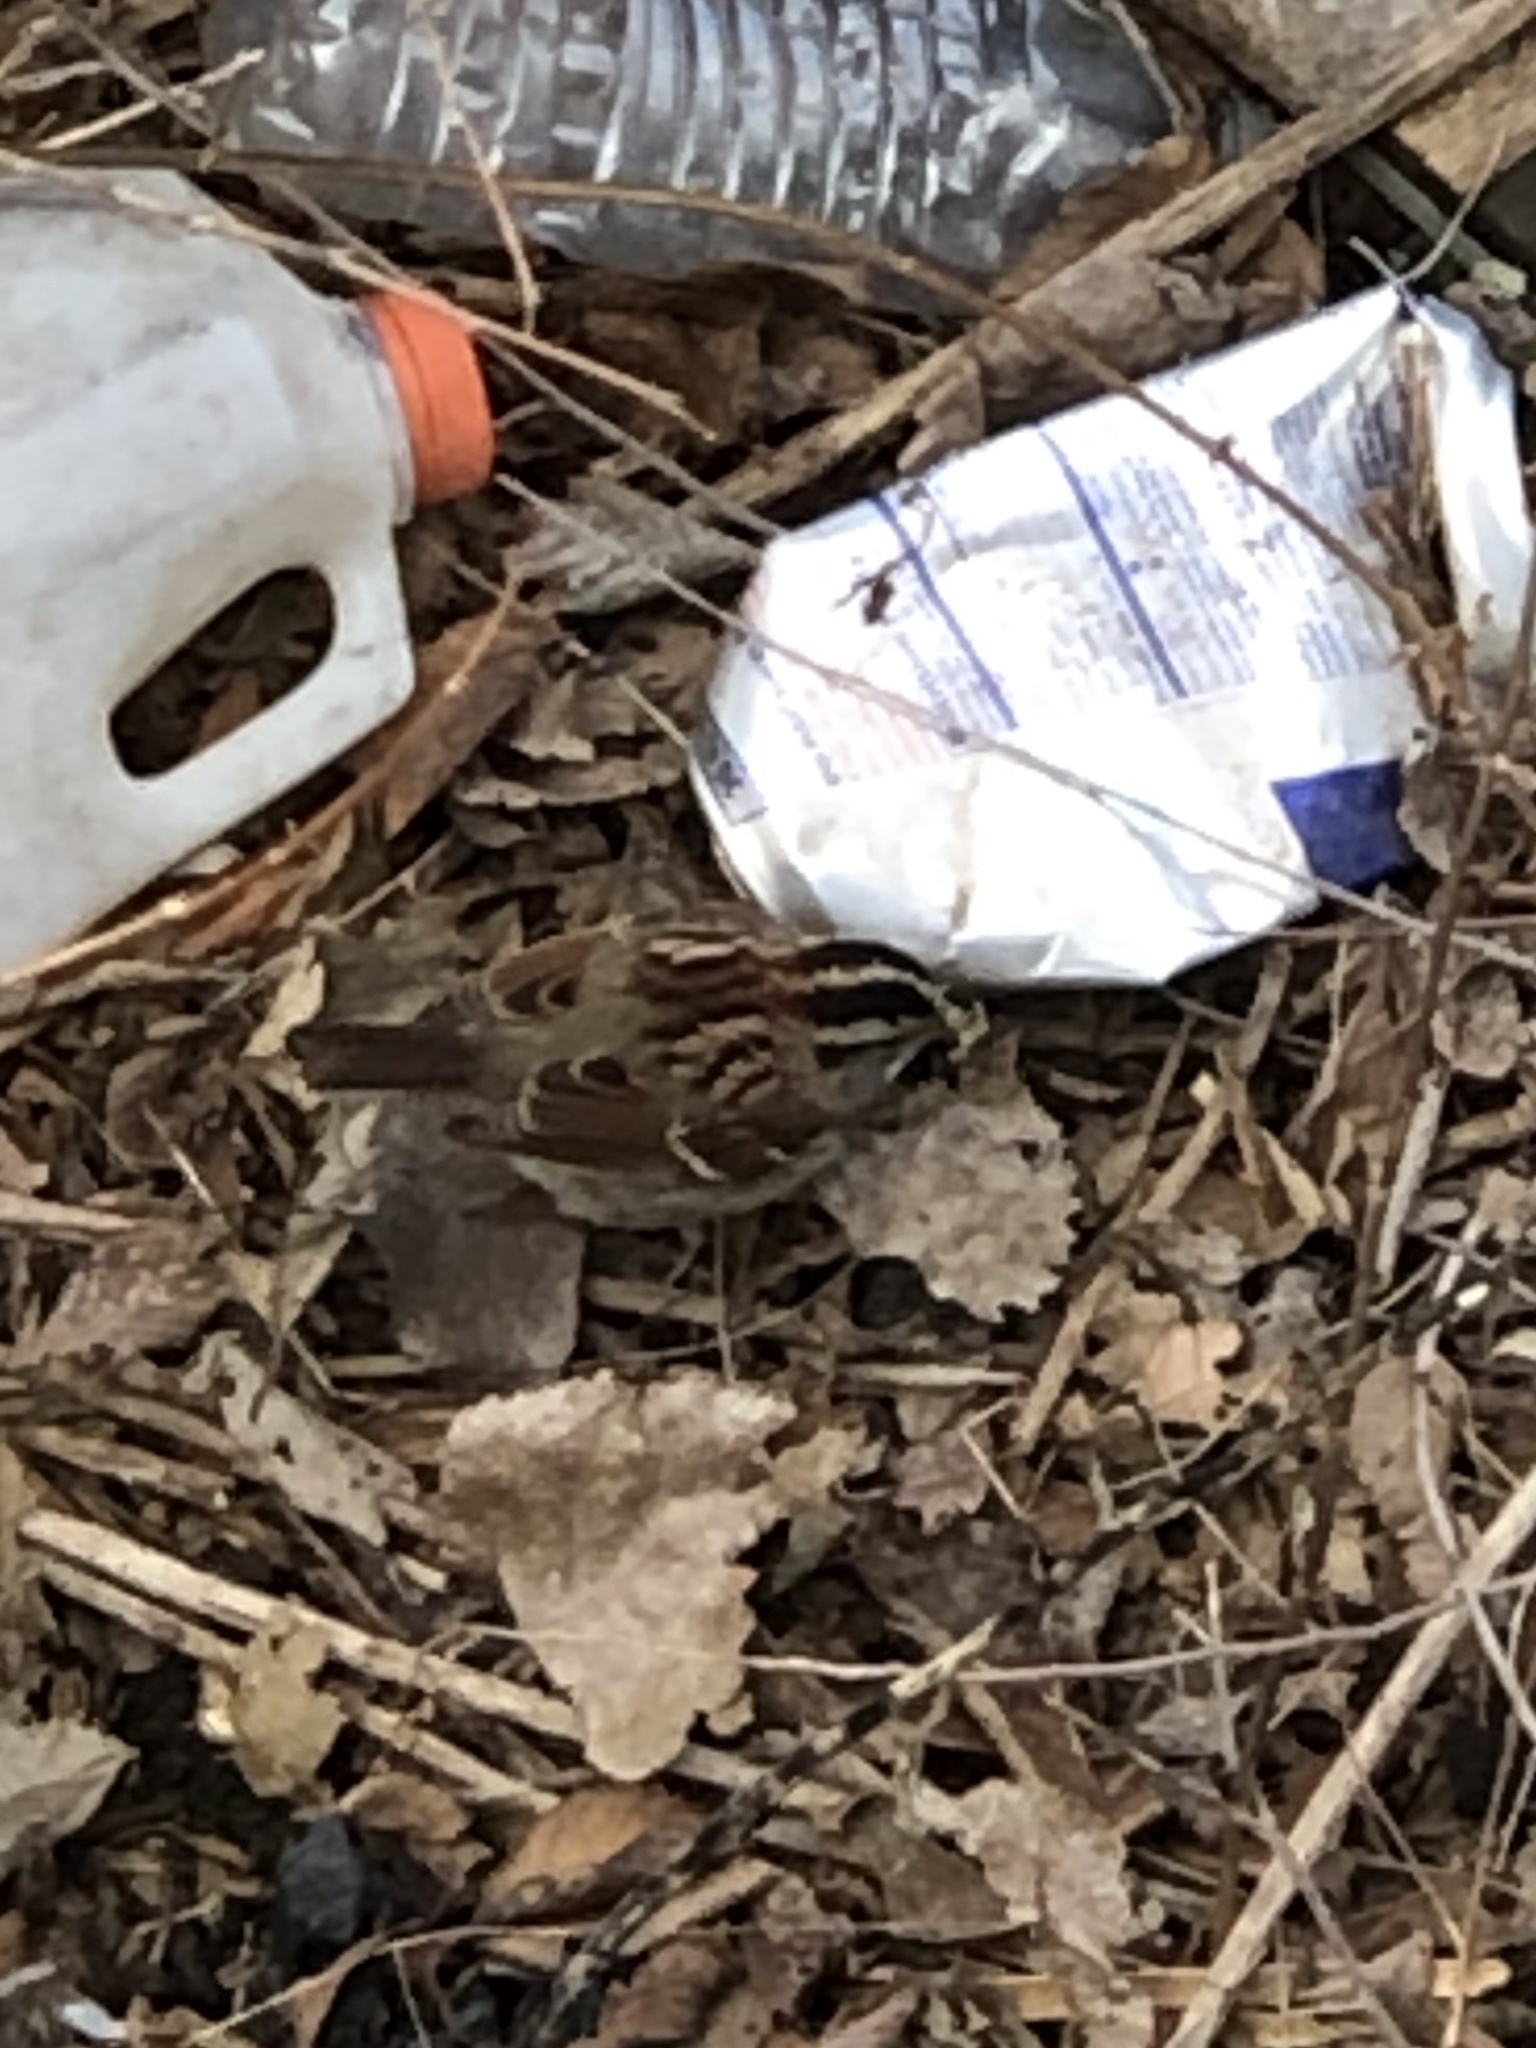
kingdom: Animalia
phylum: Chordata
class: Aves
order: Passeriformes
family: Passerellidae
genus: Zonotrichia
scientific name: Zonotrichia albicollis
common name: White-throated sparrow
